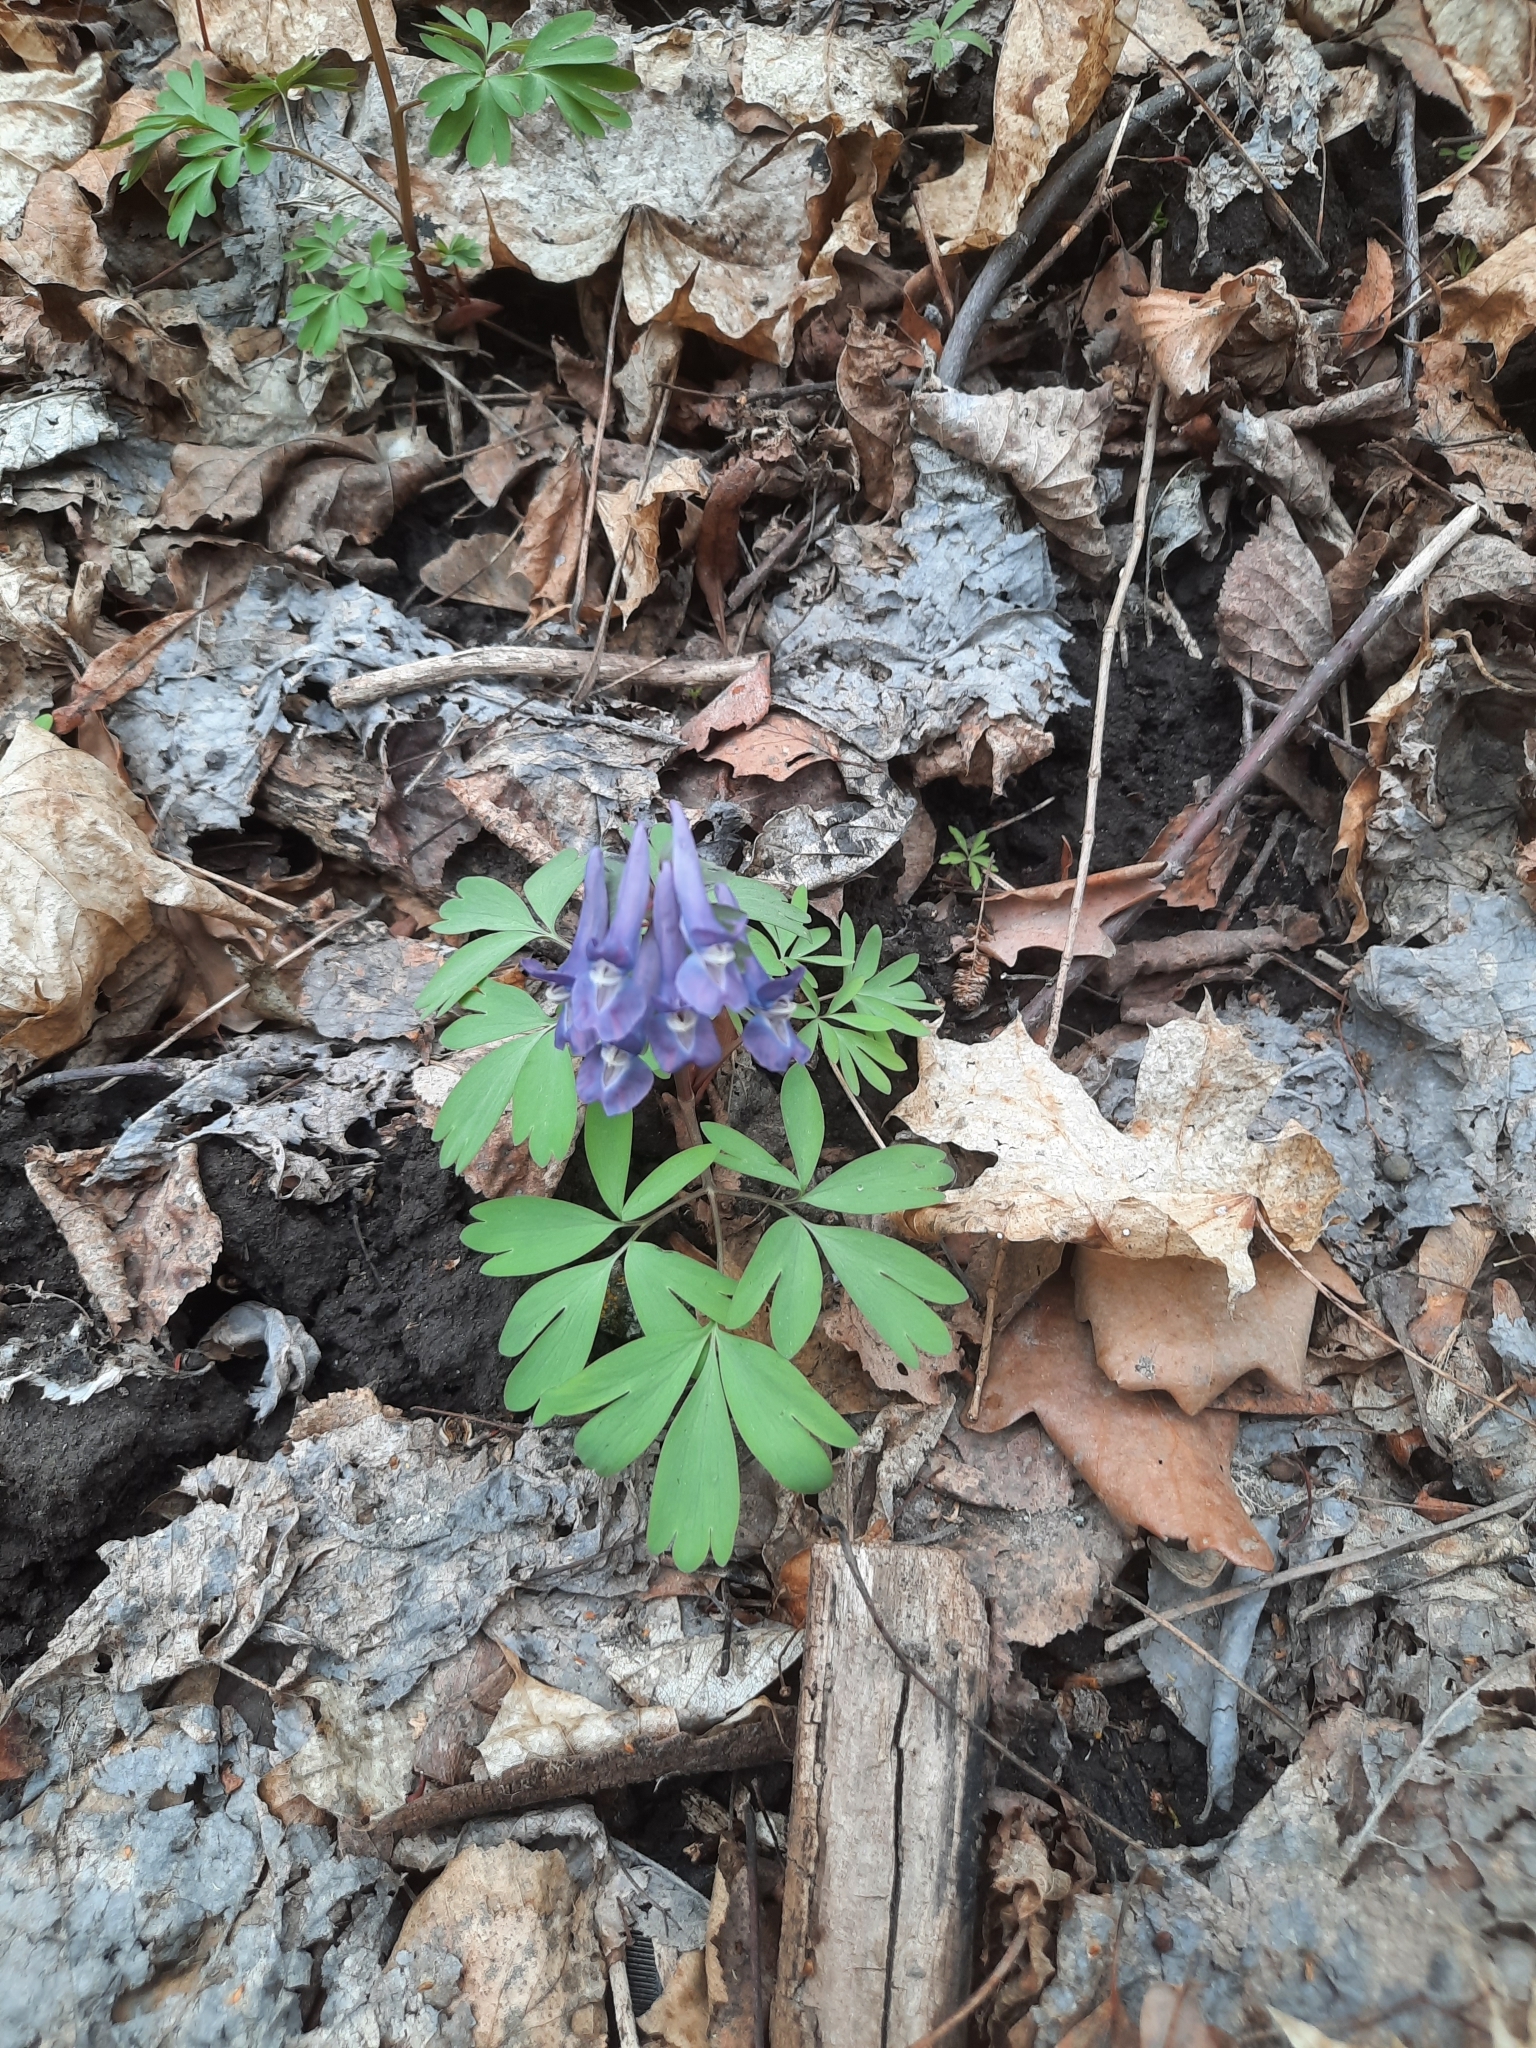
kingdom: Plantae
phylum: Tracheophyta
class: Magnoliopsida
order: Ranunculales
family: Papaveraceae
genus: Corydalis
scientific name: Corydalis solida
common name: Bird-in-a-bush
